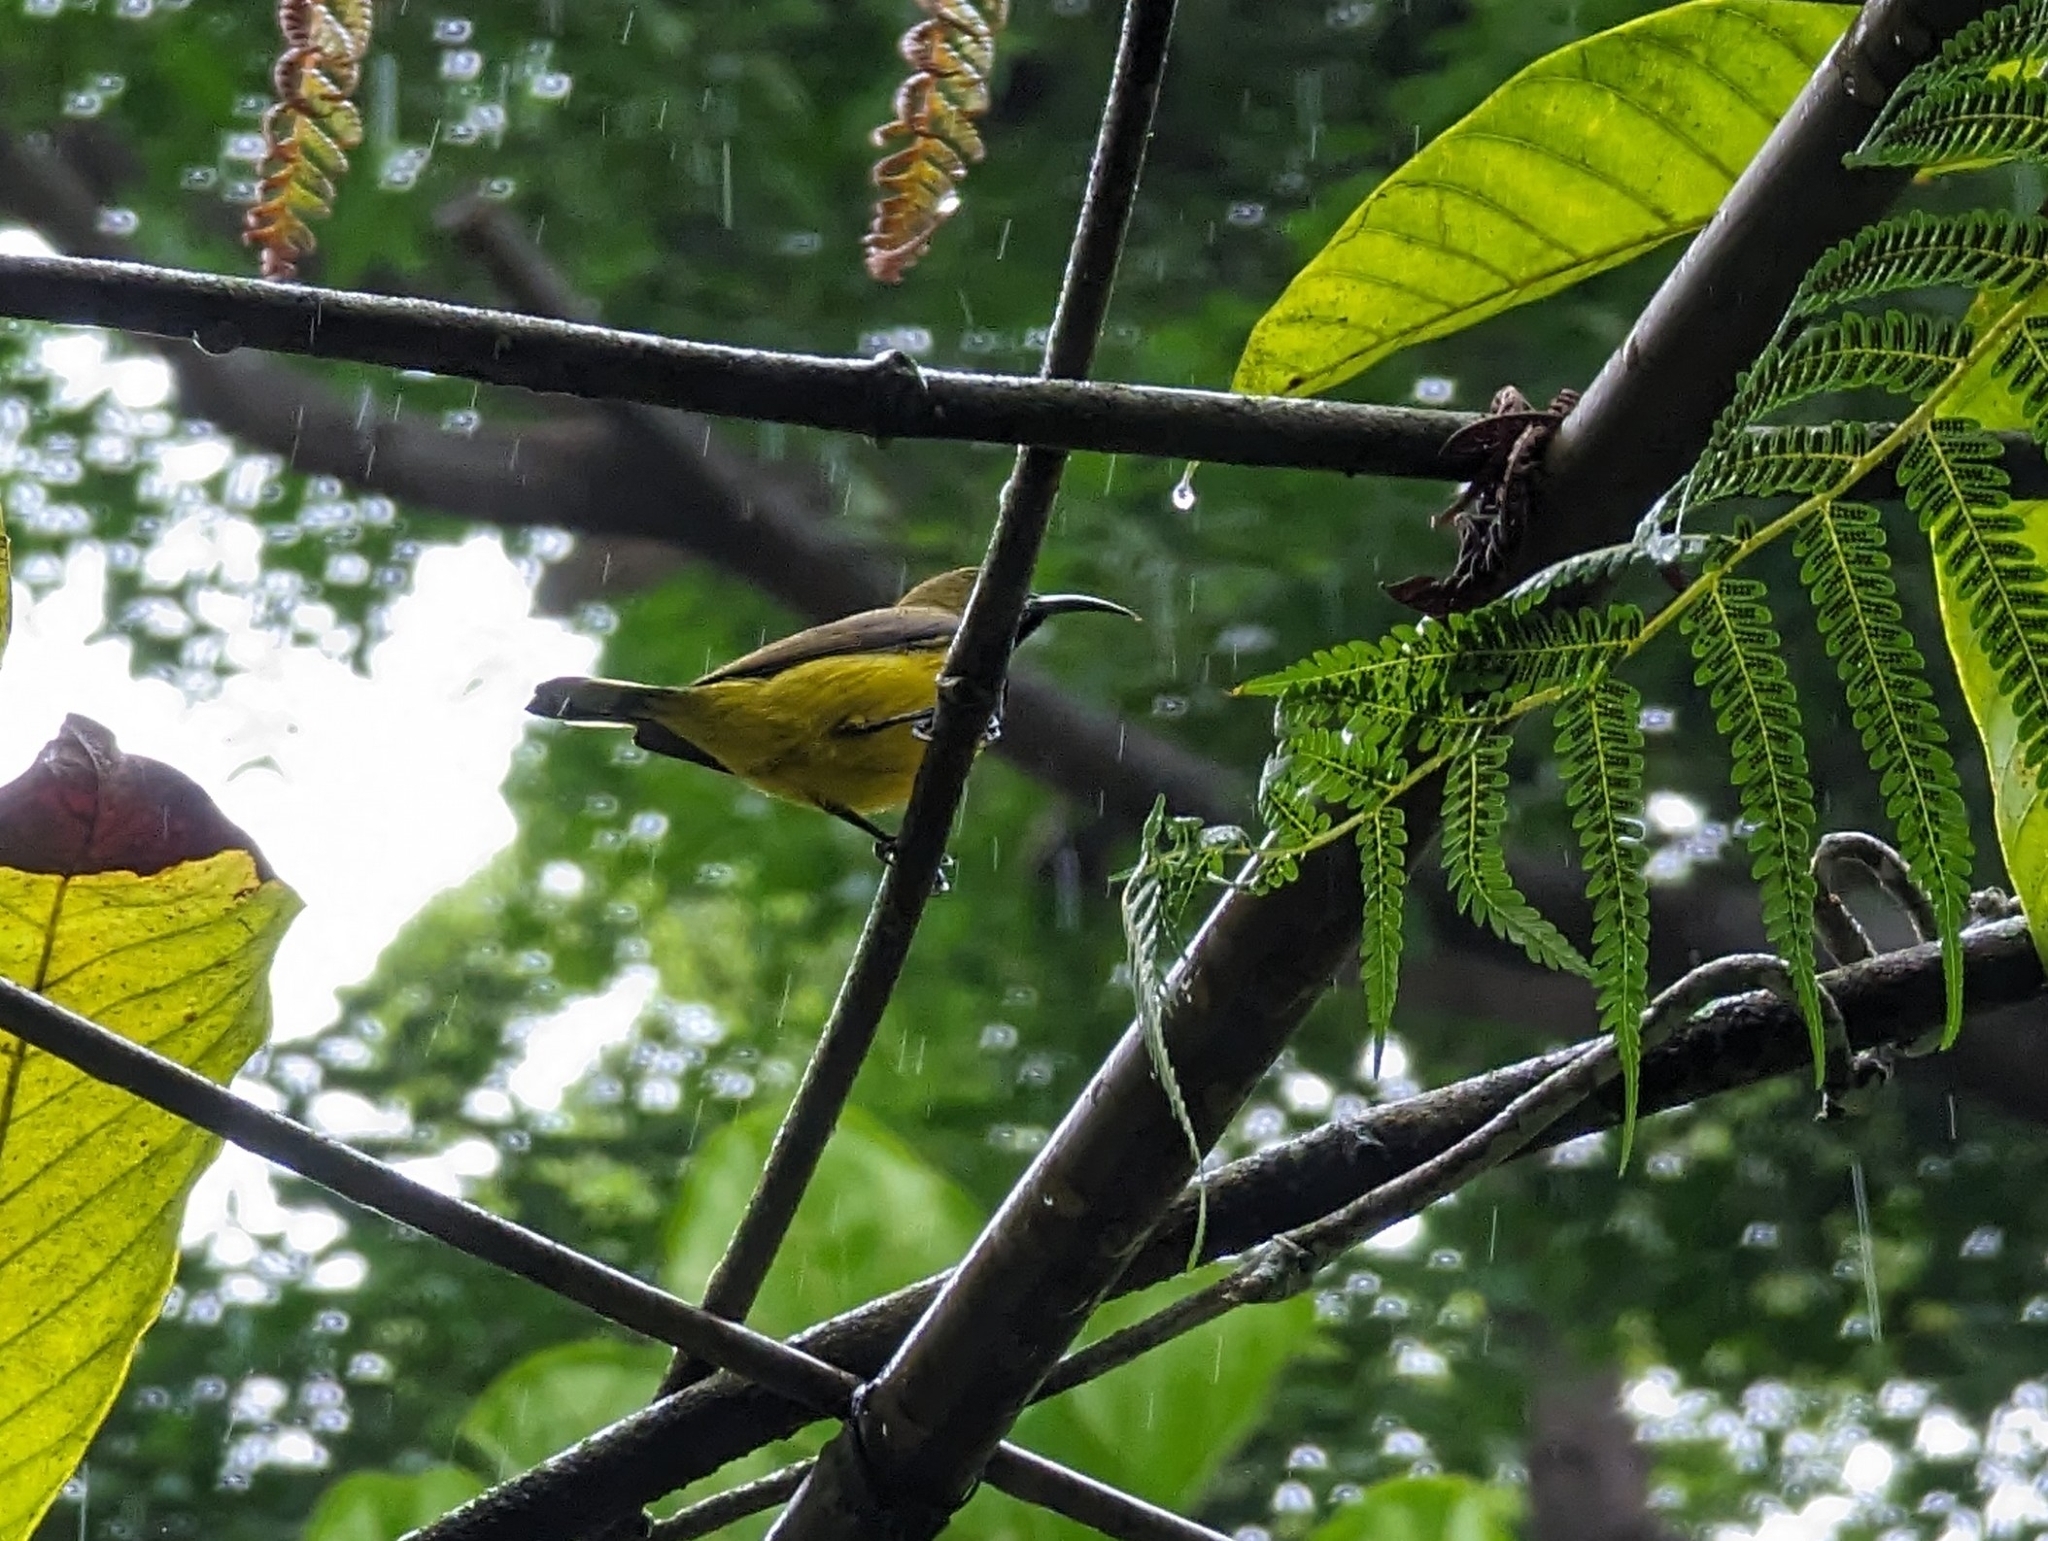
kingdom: Animalia
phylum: Chordata
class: Aves
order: Passeriformes
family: Nectariniidae
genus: Cinnyris
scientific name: Cinnyris
